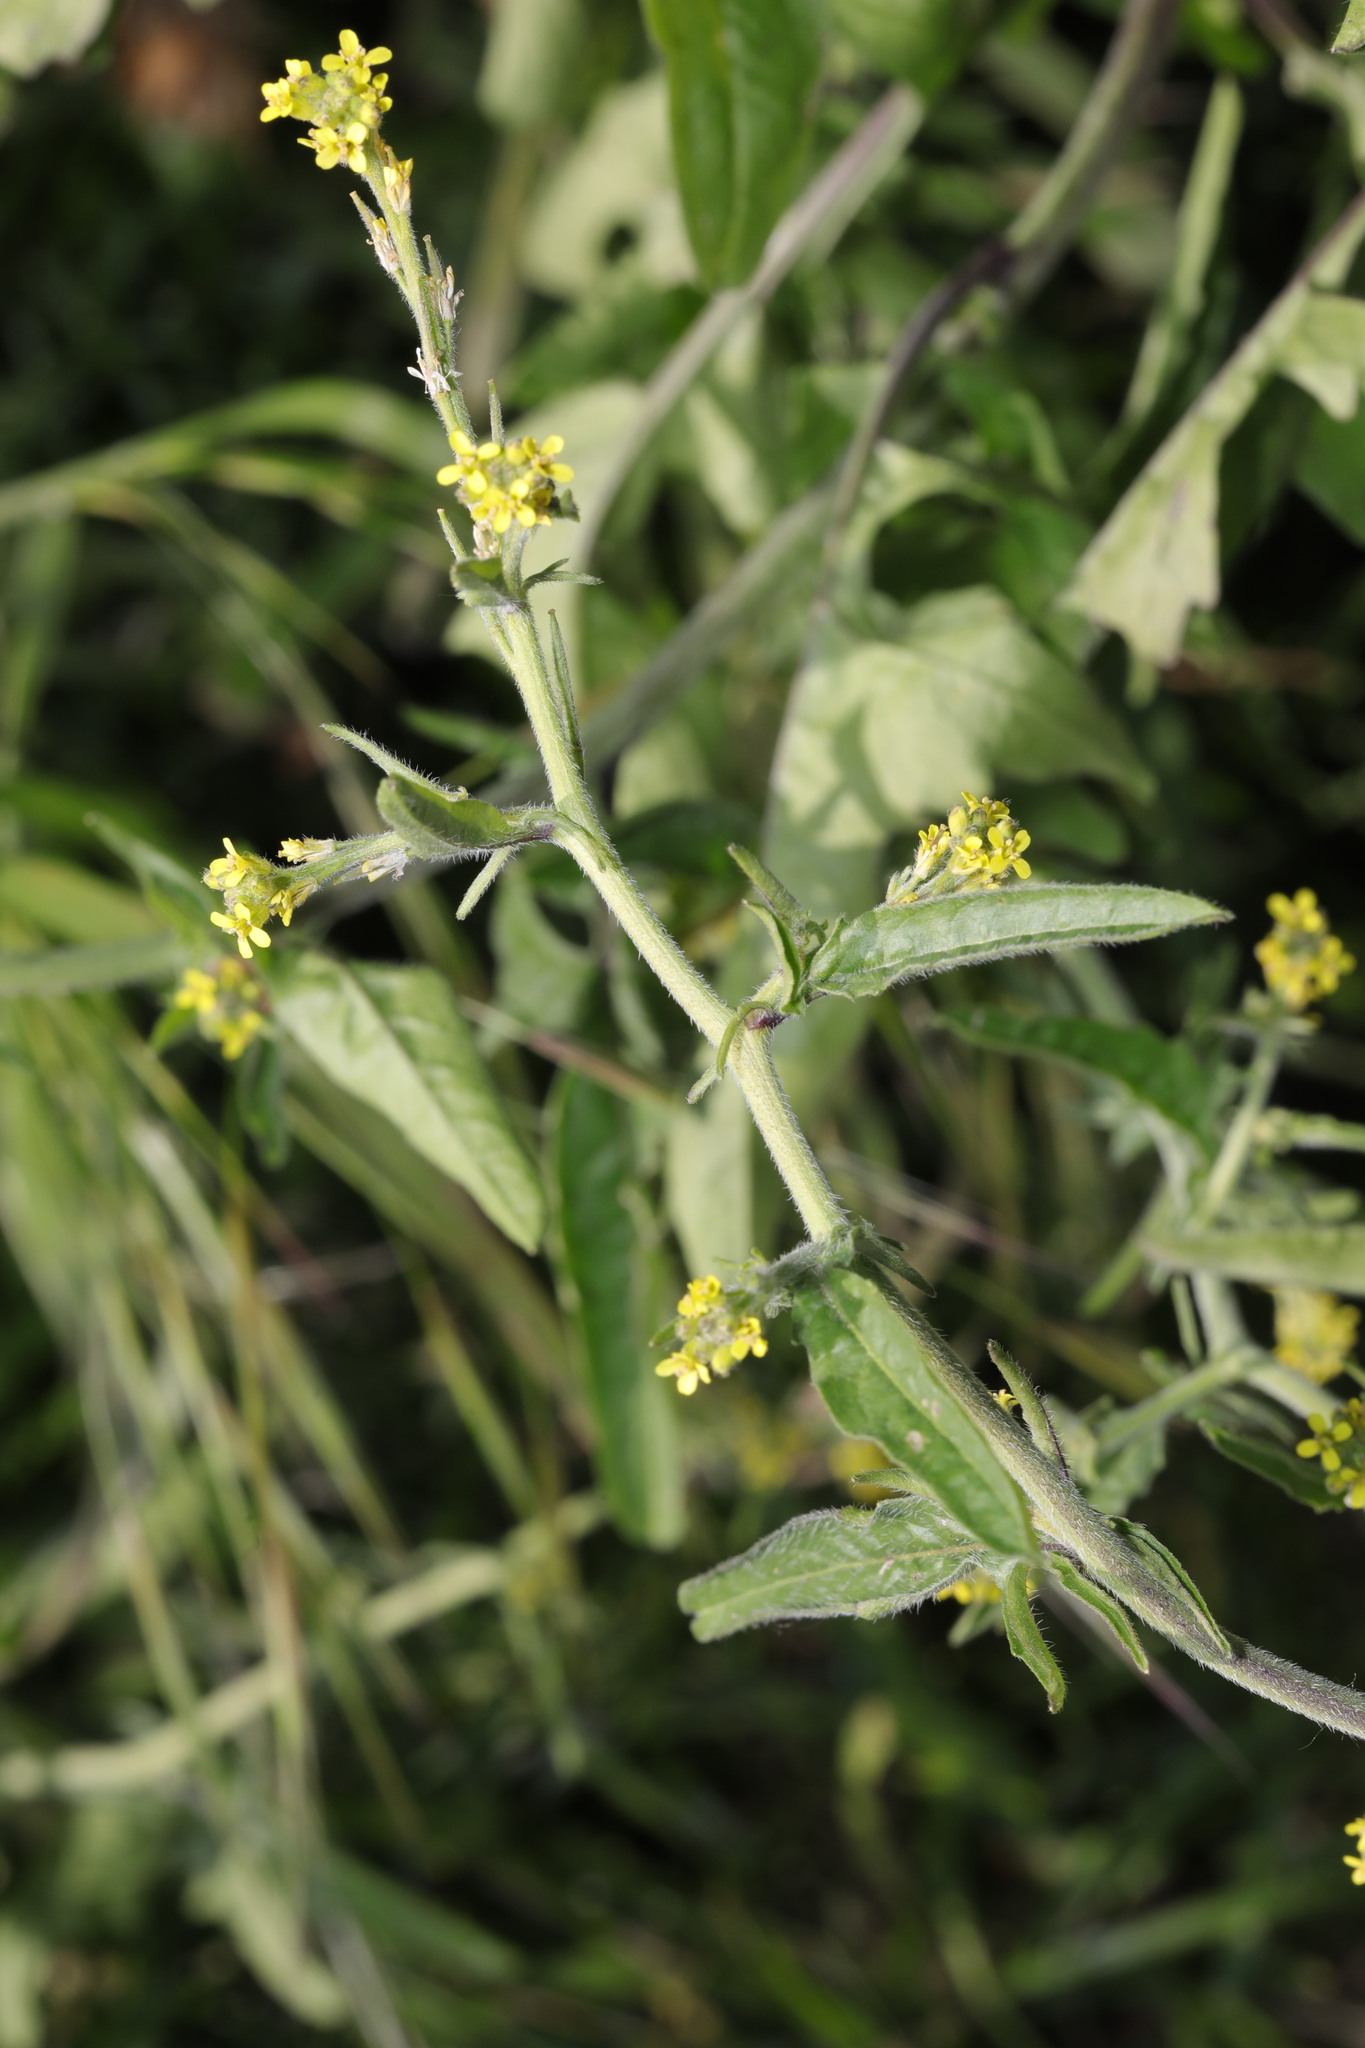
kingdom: Plantae
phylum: Tracheophyta
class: Magnoliopsida
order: Brassicales
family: Brassicaceae
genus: Sisymbrium
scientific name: Sisymbrium officinale
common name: Hedge mustard
